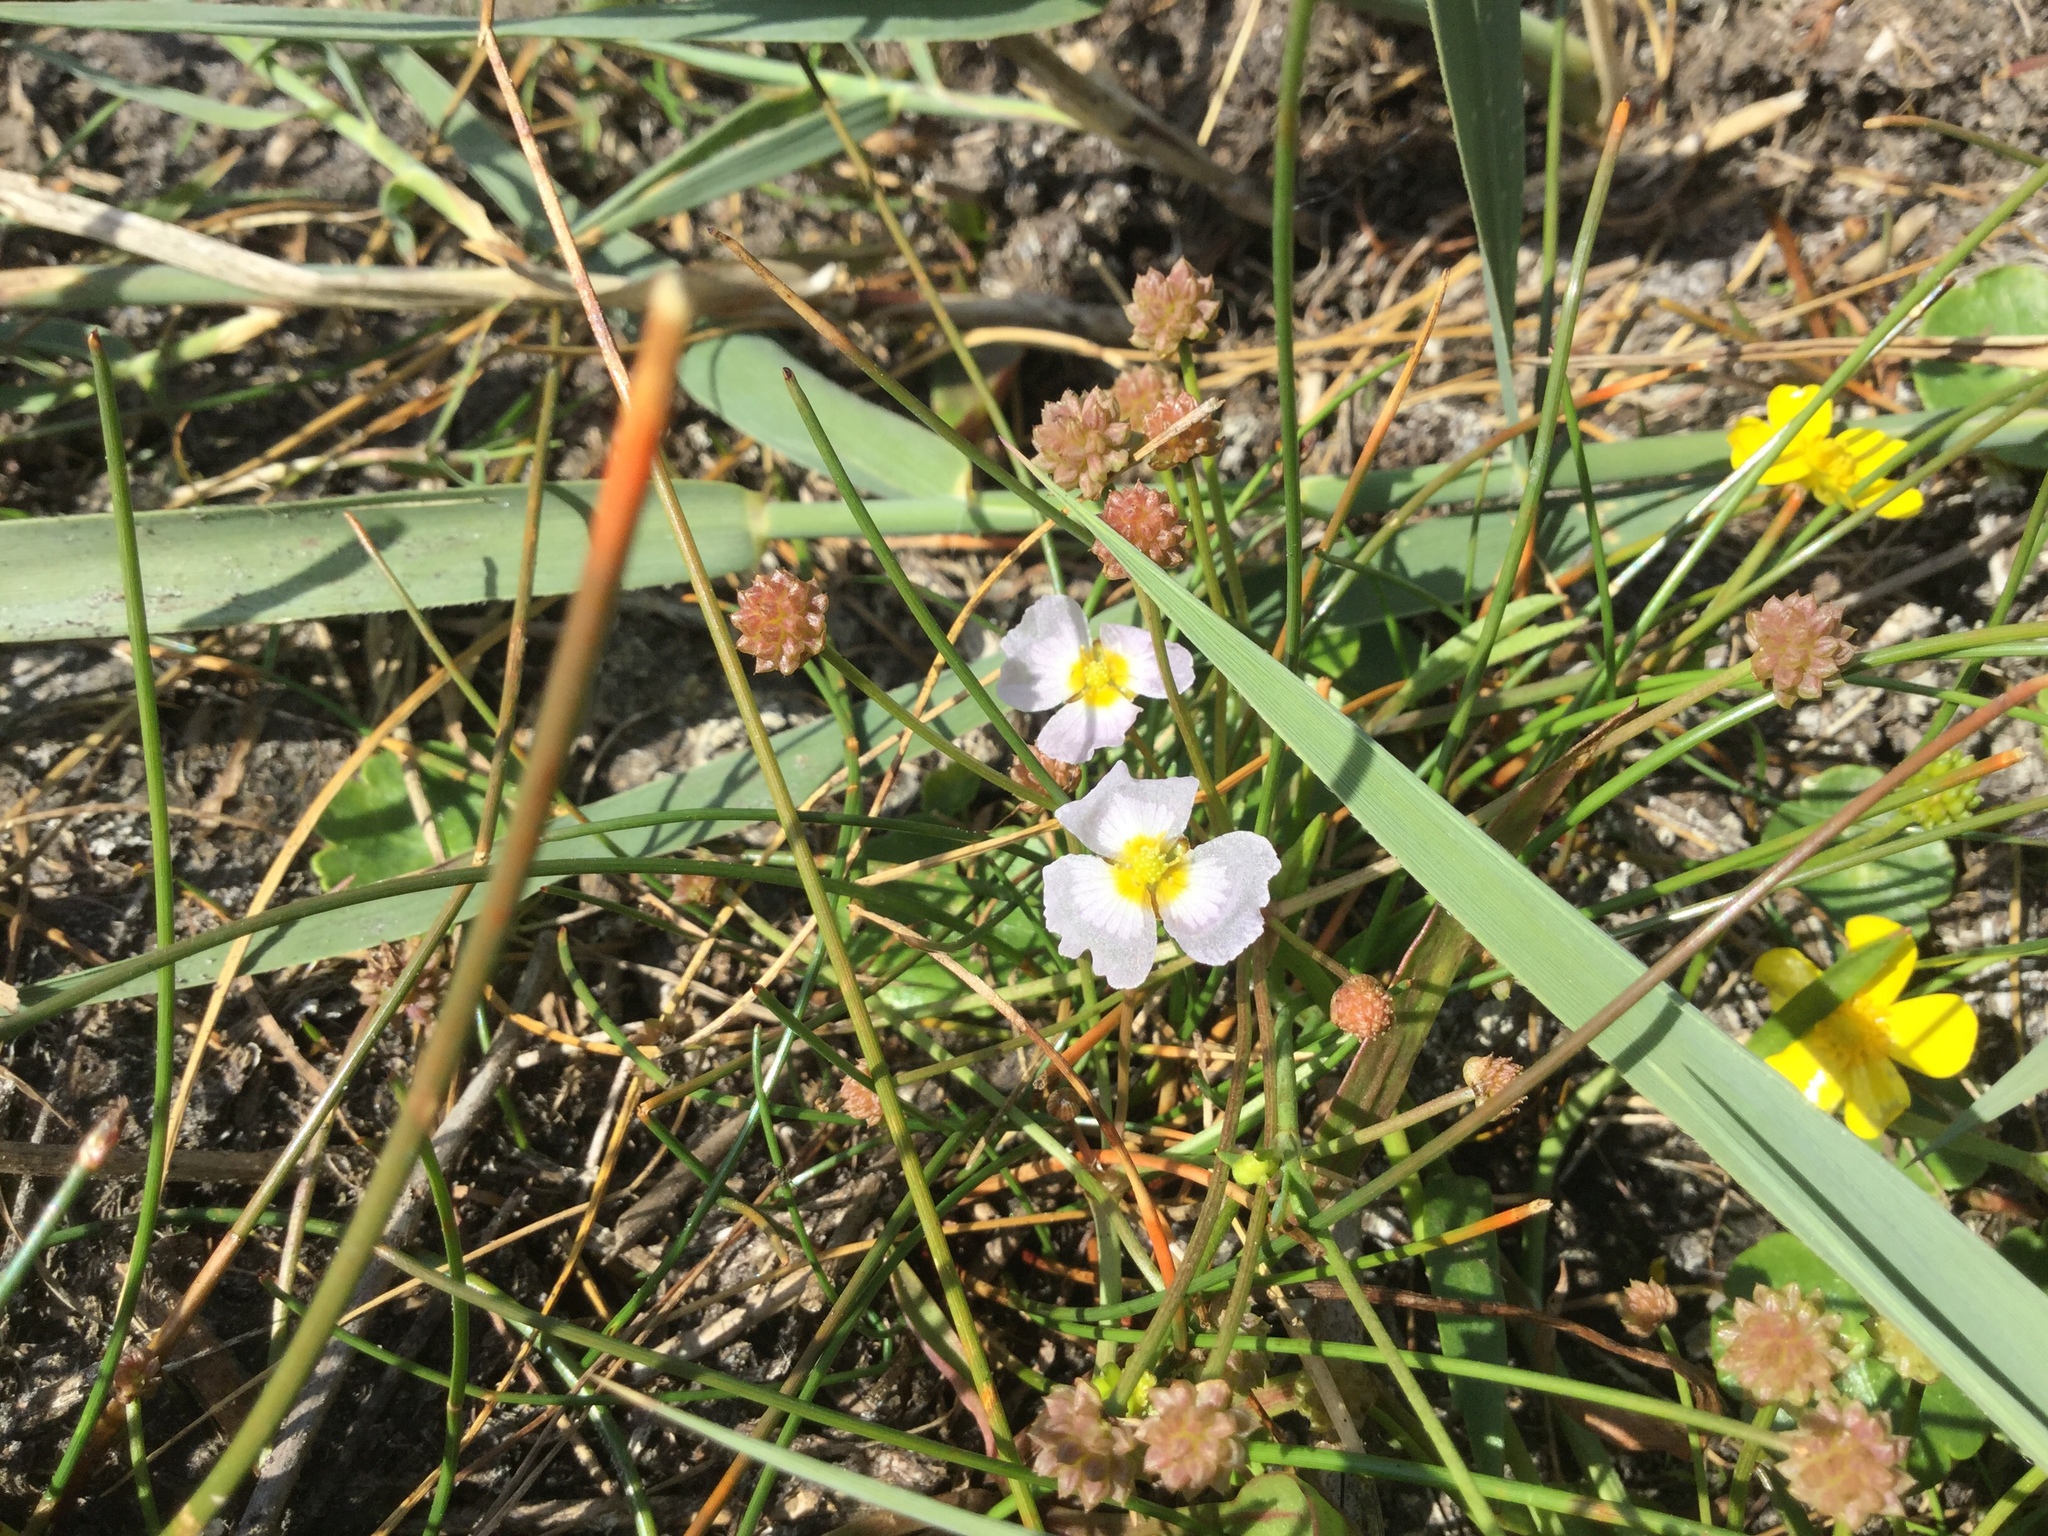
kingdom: Plantae
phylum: Tracheophyta
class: Liliopsida
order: Alismatales
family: Alismataceae
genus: Baldellia
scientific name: Baldellia ranunculoides
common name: Lesser water-plantain
